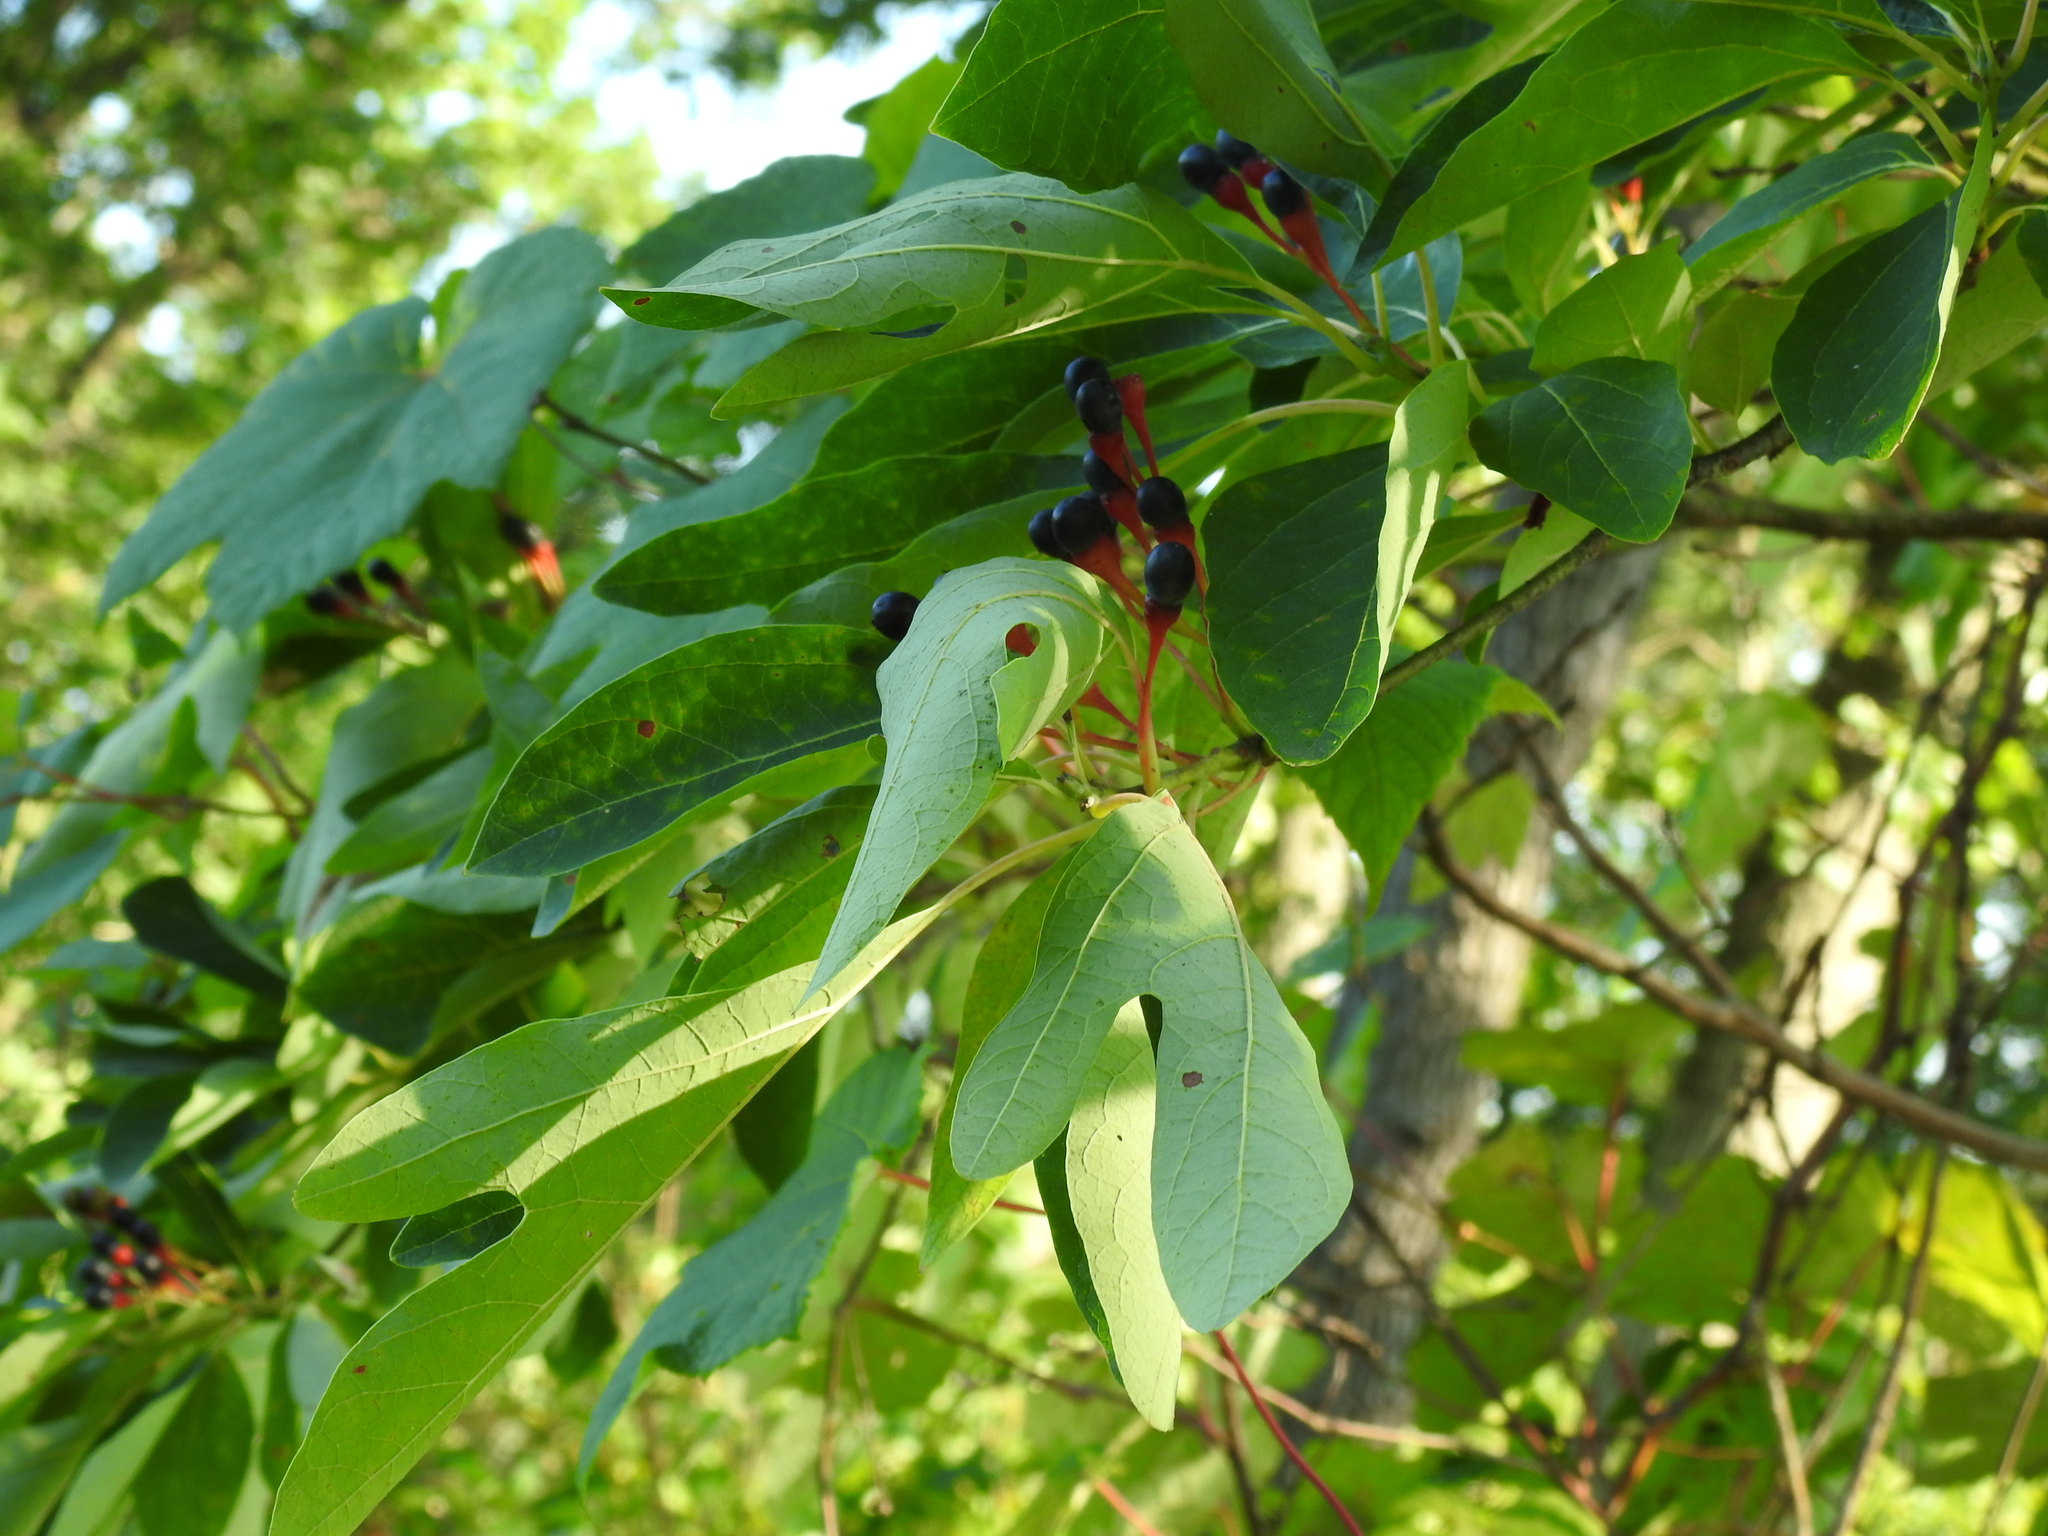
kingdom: Plantae
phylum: Tracheophyta
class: Magnoliopsida
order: Laurales
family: Lauraceae
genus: Sassafras
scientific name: Sassafras albidum
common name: Sassafras
